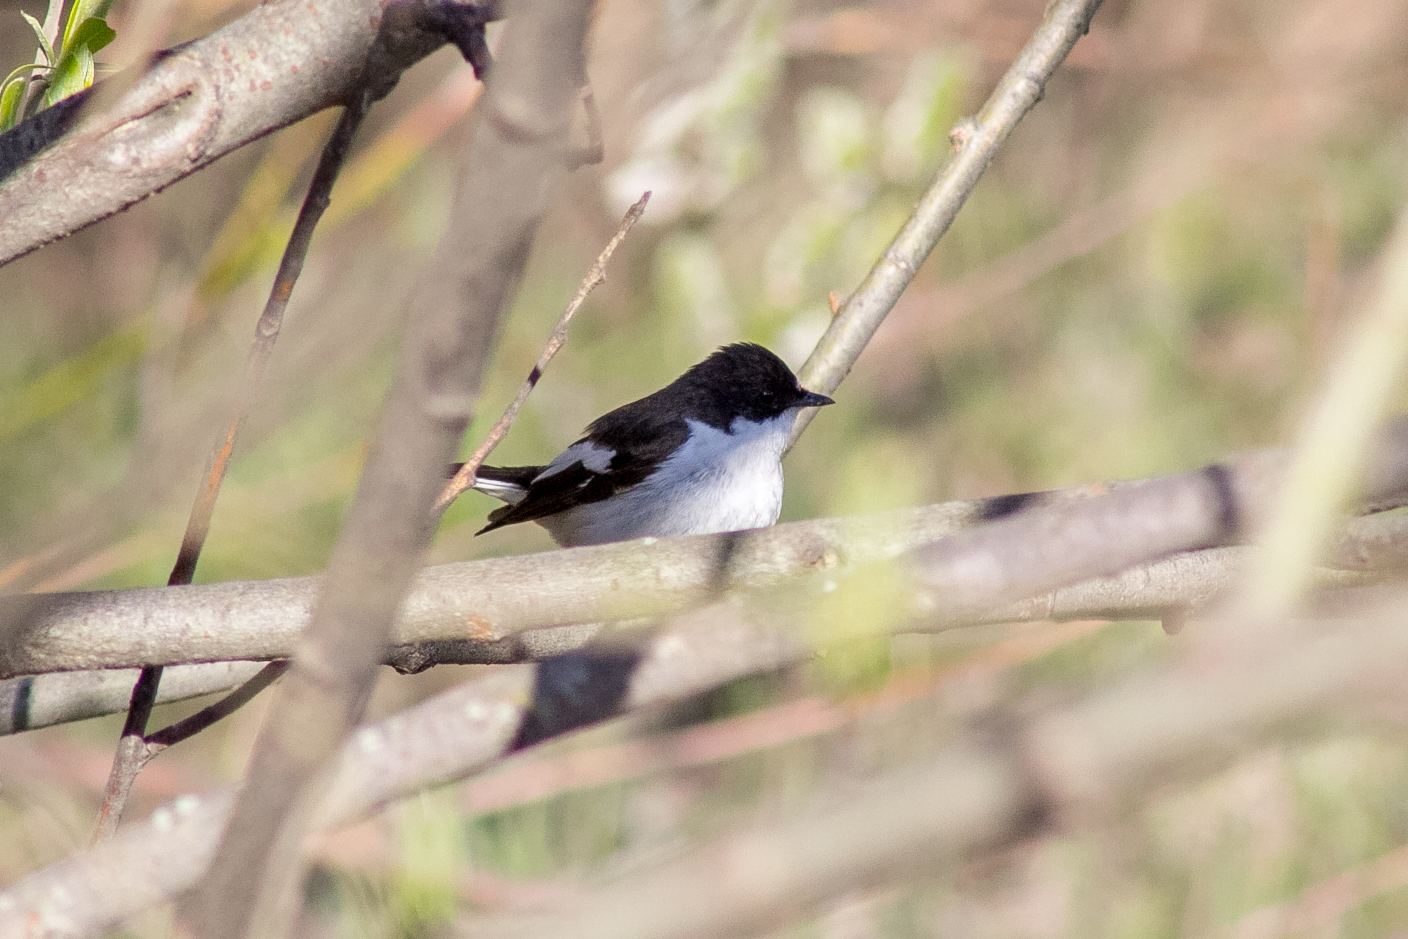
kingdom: Animalia
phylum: Chordata
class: Aves
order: Passeriformes
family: Muscicapidae
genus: Ficedula
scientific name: Ficedula hypoleuca
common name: European pied flycatcher
